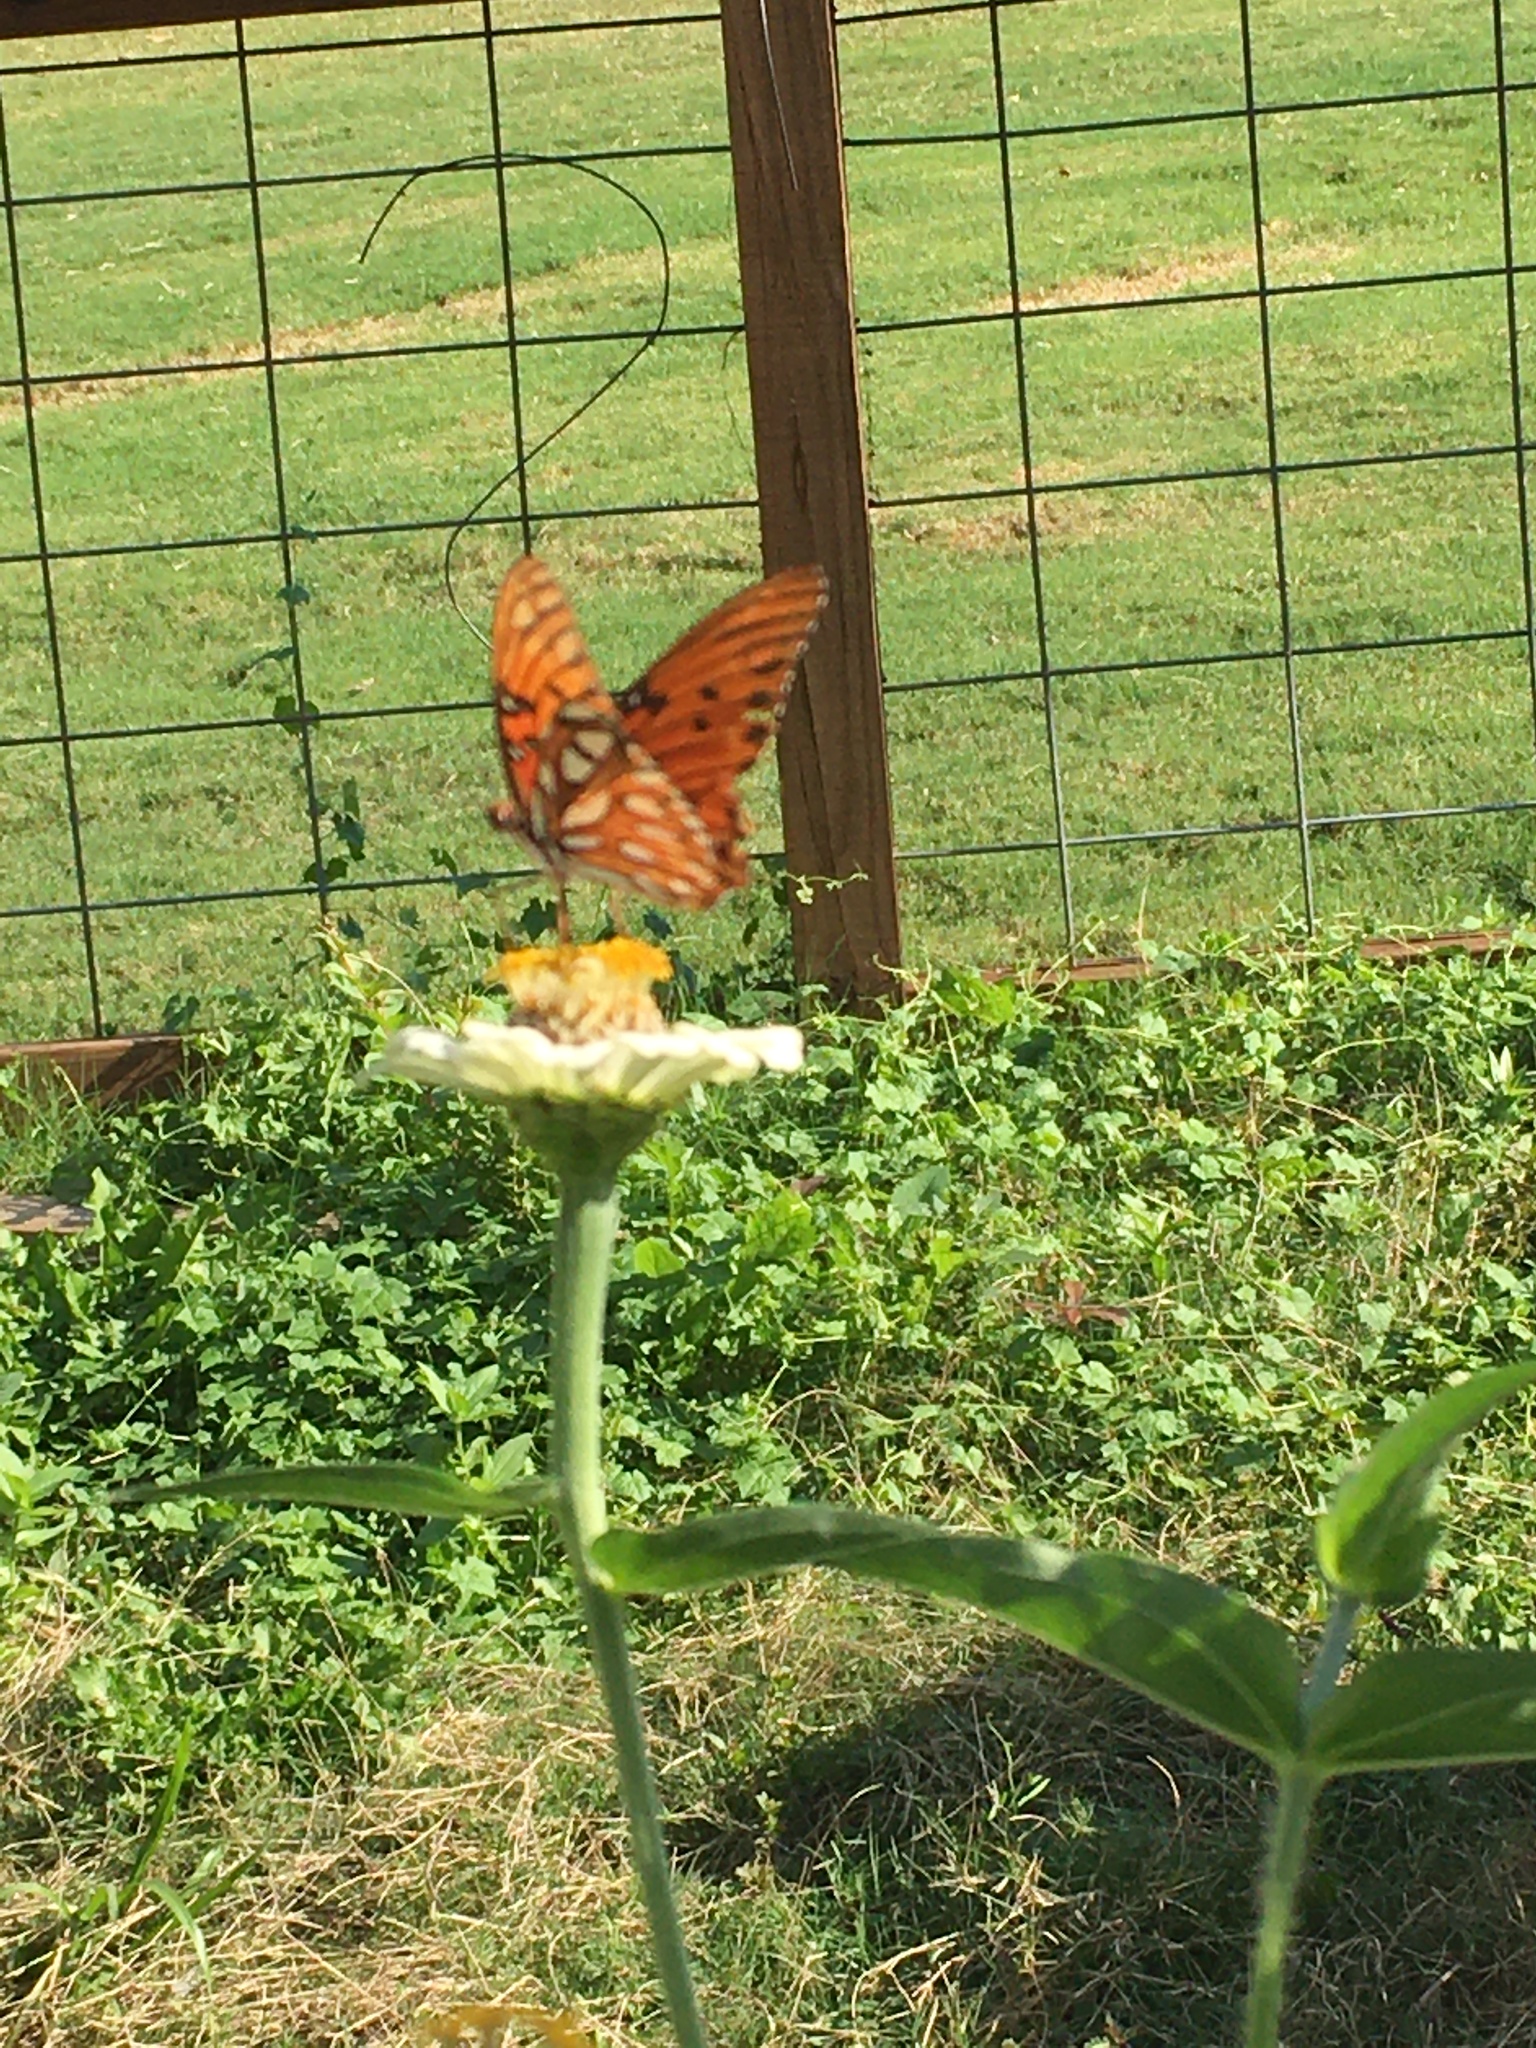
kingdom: Animalia
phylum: Arthropoda
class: Insecta
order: Lepidoptera
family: Nymphalidae
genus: Dione
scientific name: Dione vanillae
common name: Gulf fritillary
